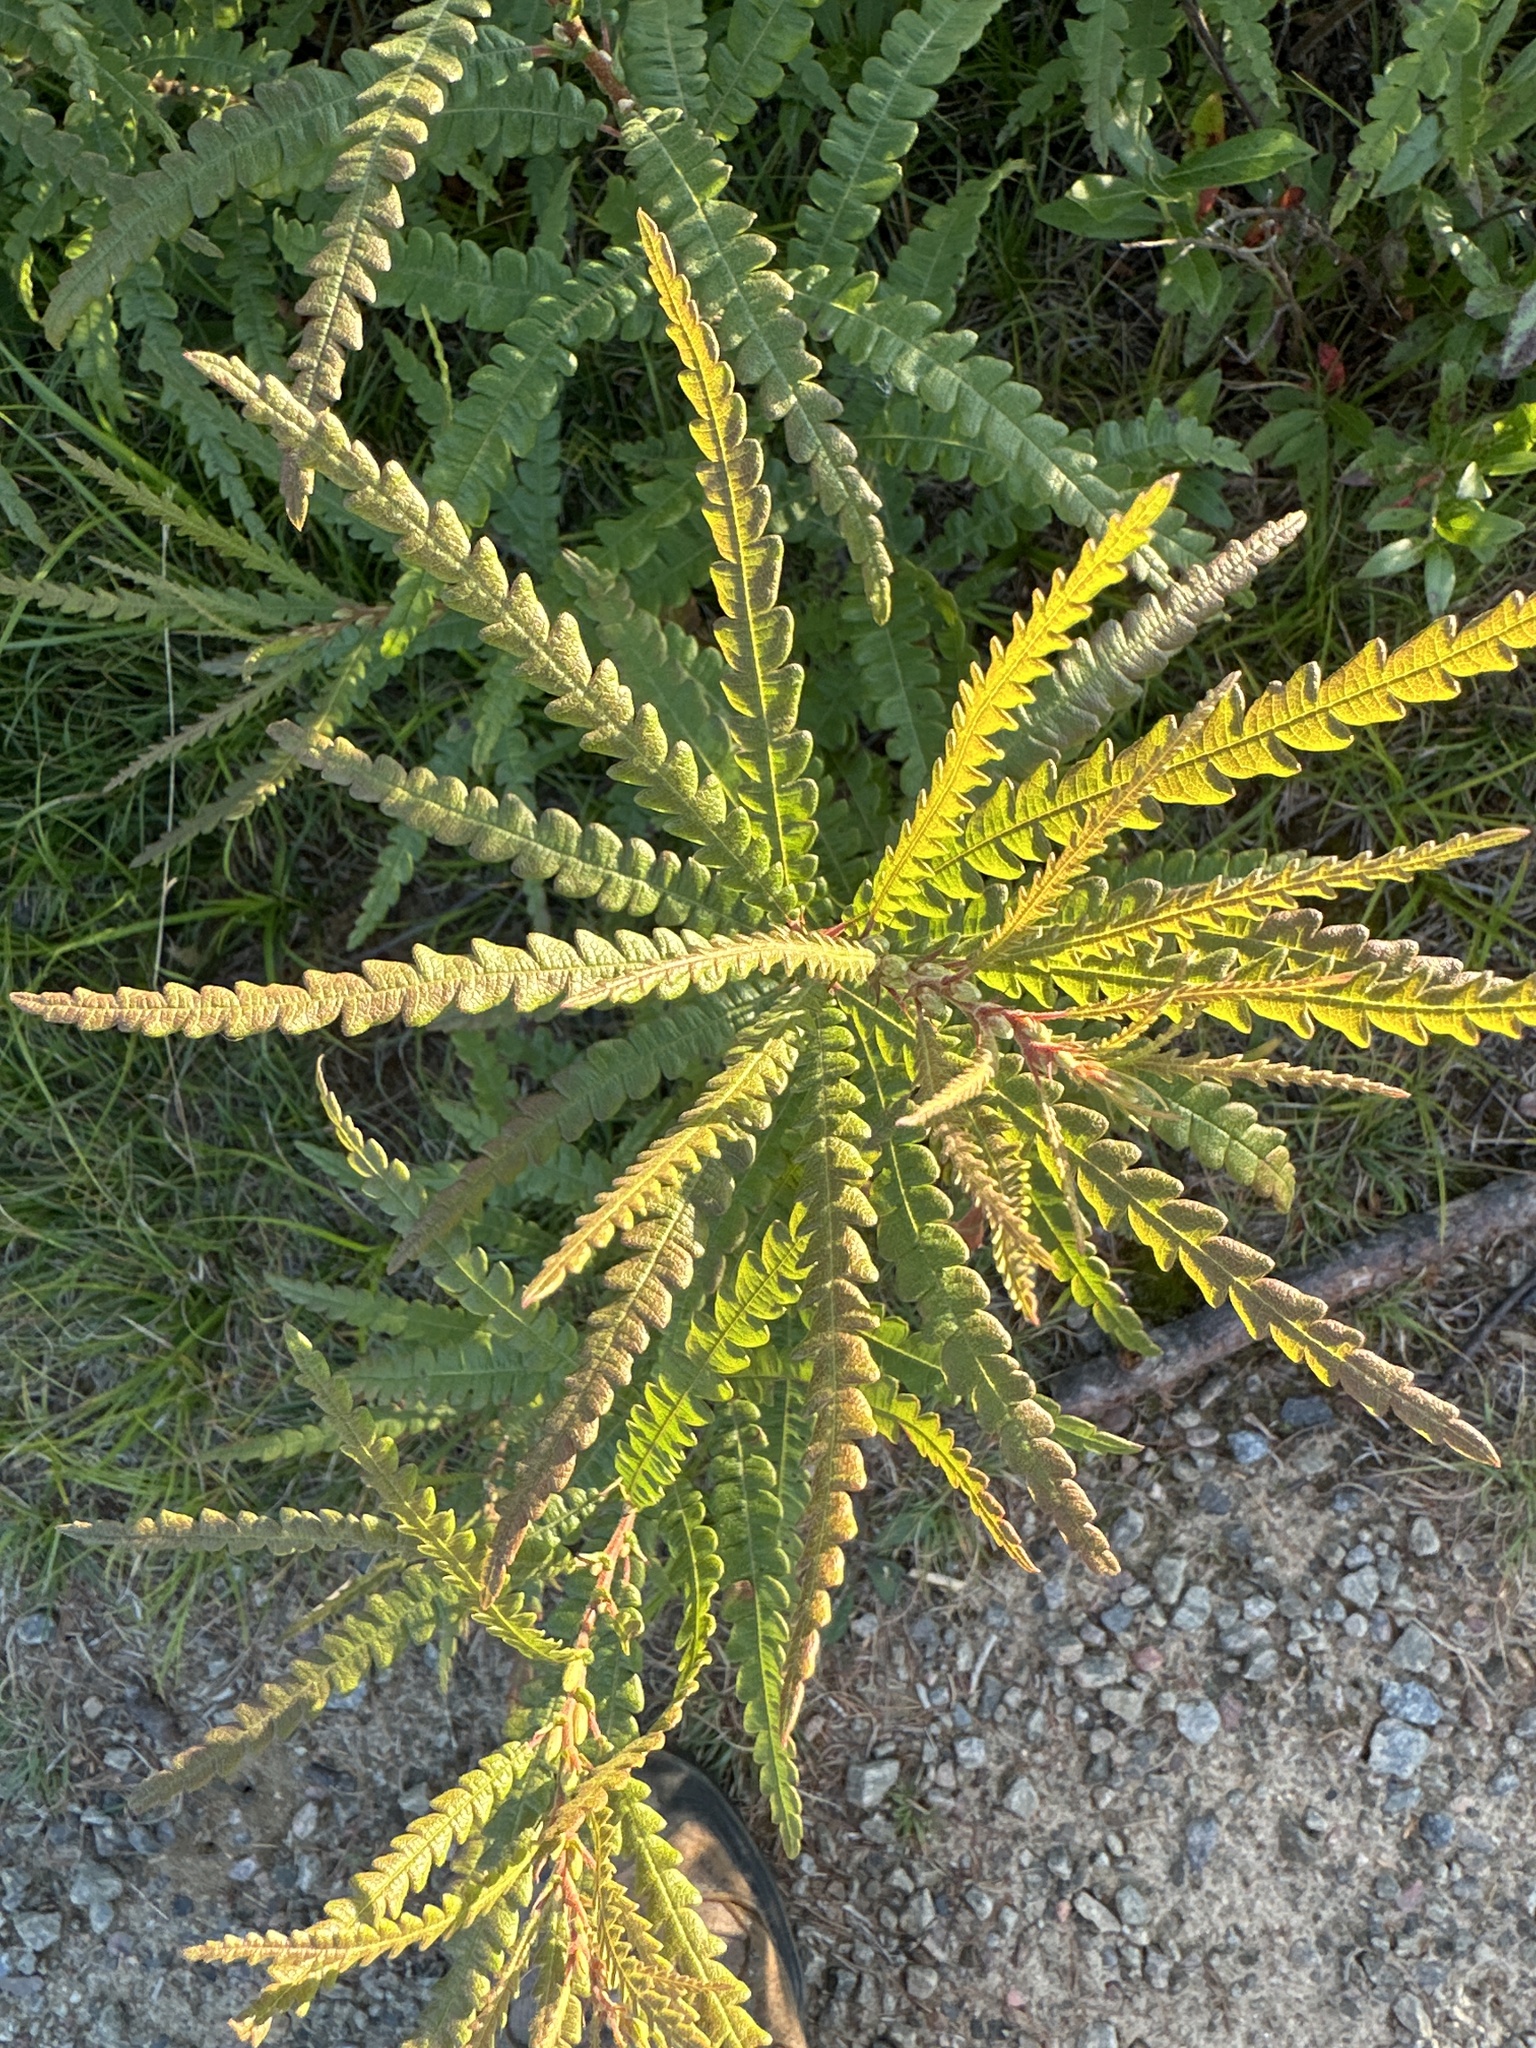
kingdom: Plantae
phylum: Tracheophyta
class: Magnoliopsida
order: Fagales
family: Myricaceae
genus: Comptonia
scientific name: Comptonia peregrina
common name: Sweet-fern
